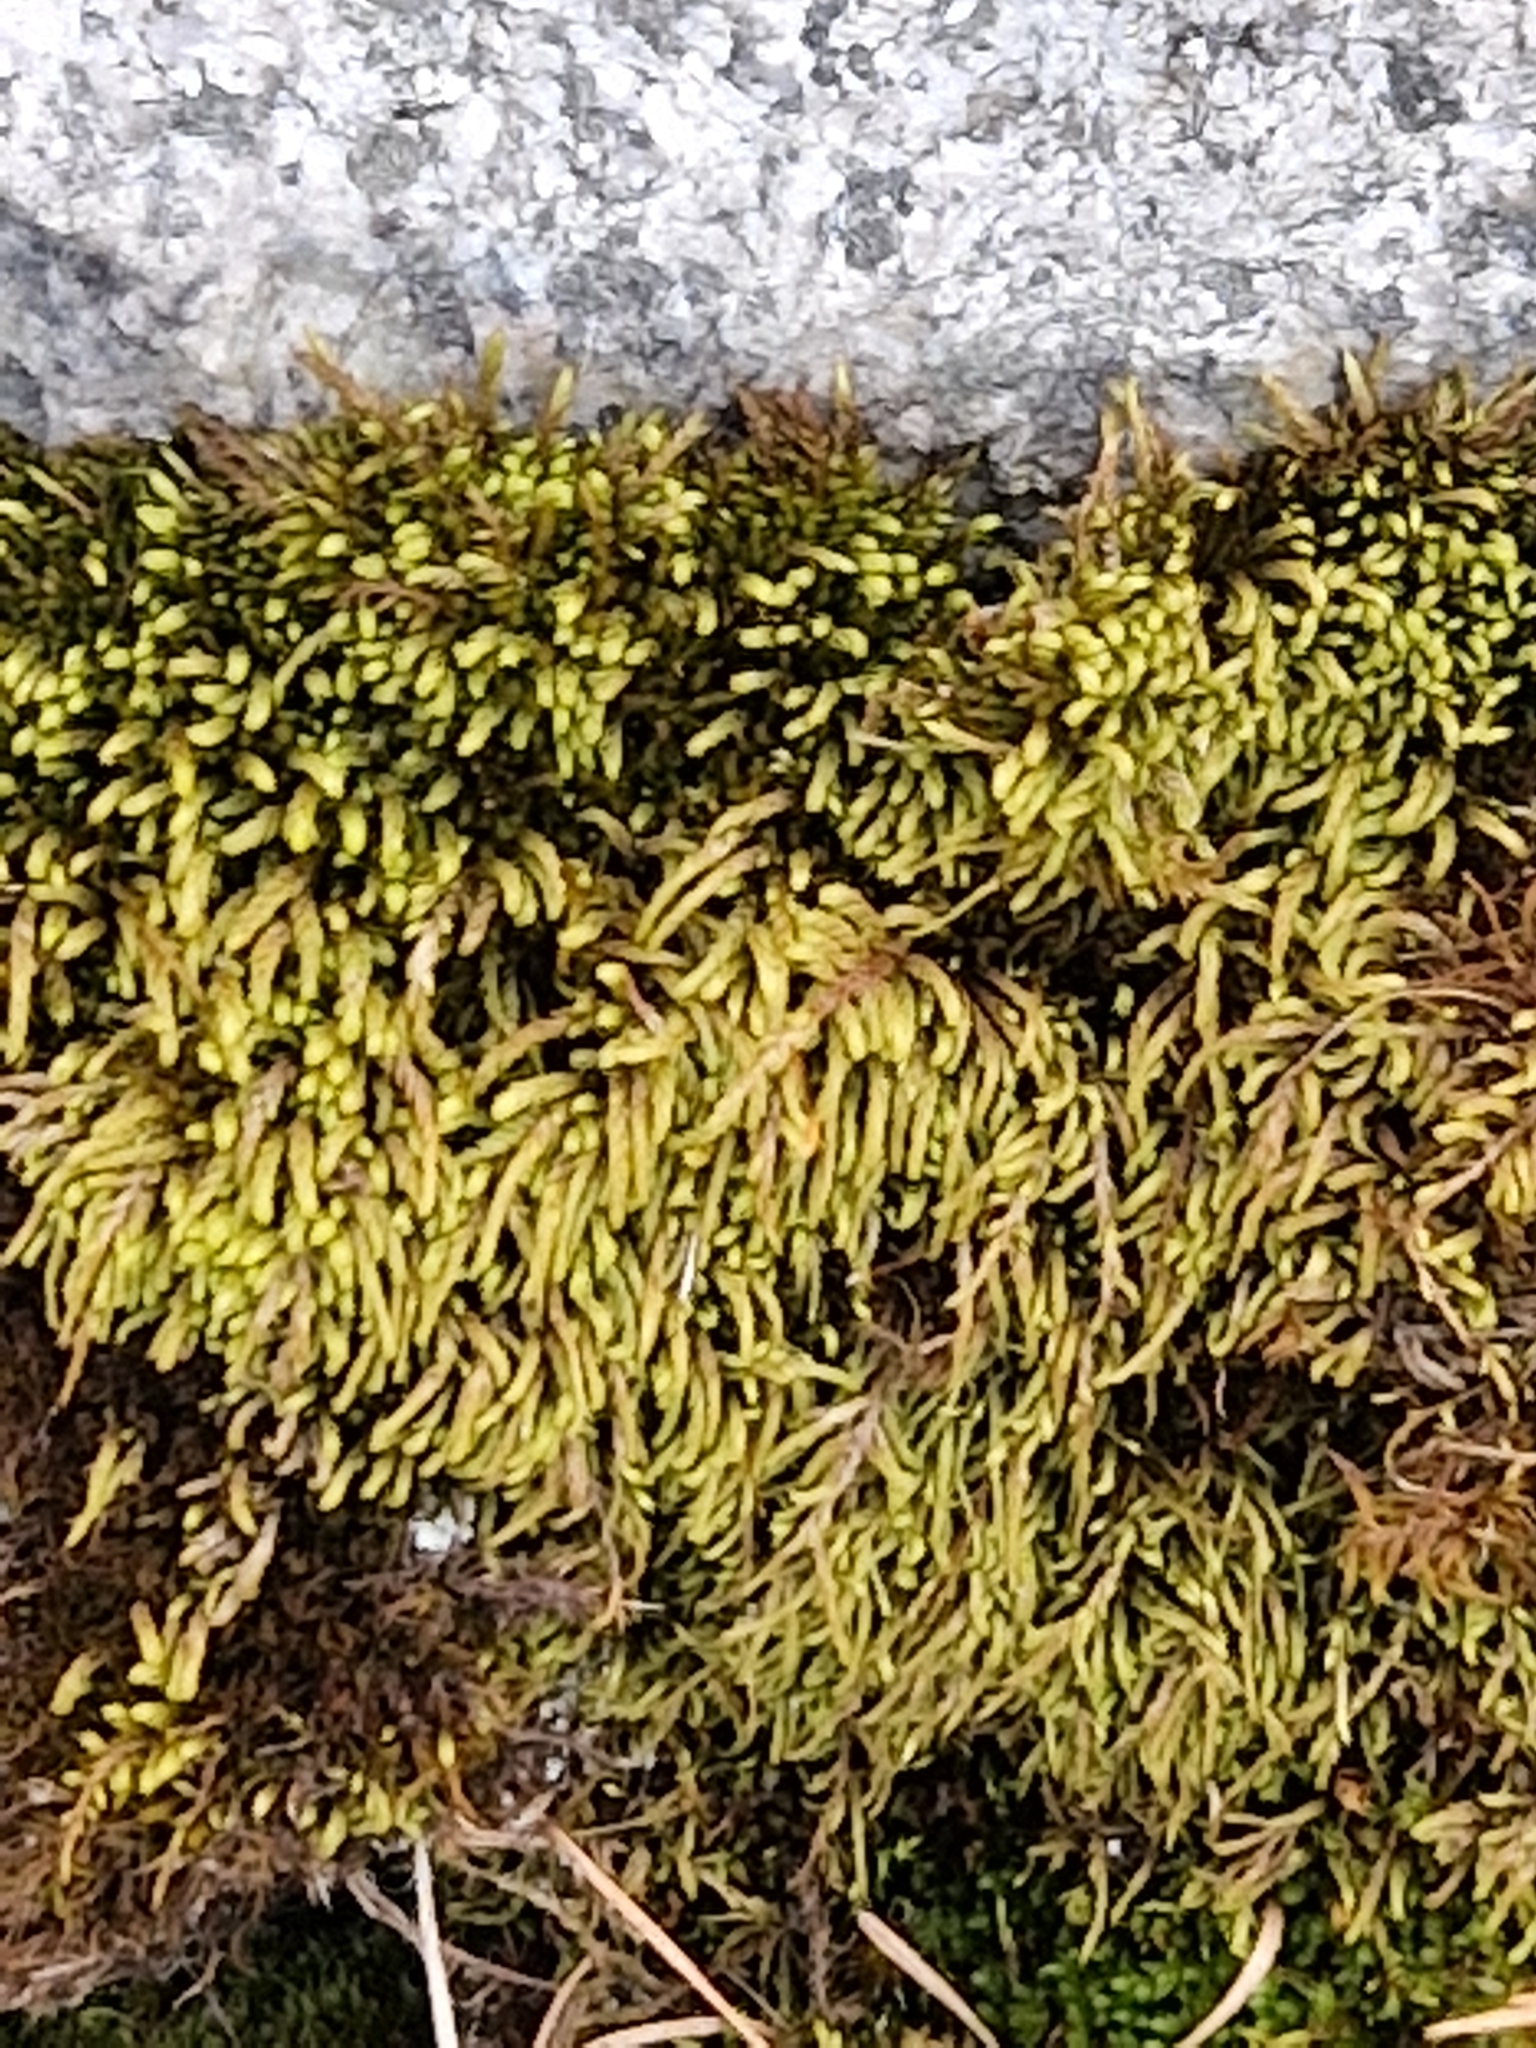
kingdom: Plantae
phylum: Bryophyta
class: Bryopsida
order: Hypnales
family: Pterigynandraceae
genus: Pterigynandrum
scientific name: Pterigynandrum filiforme
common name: Capillary wing moss
